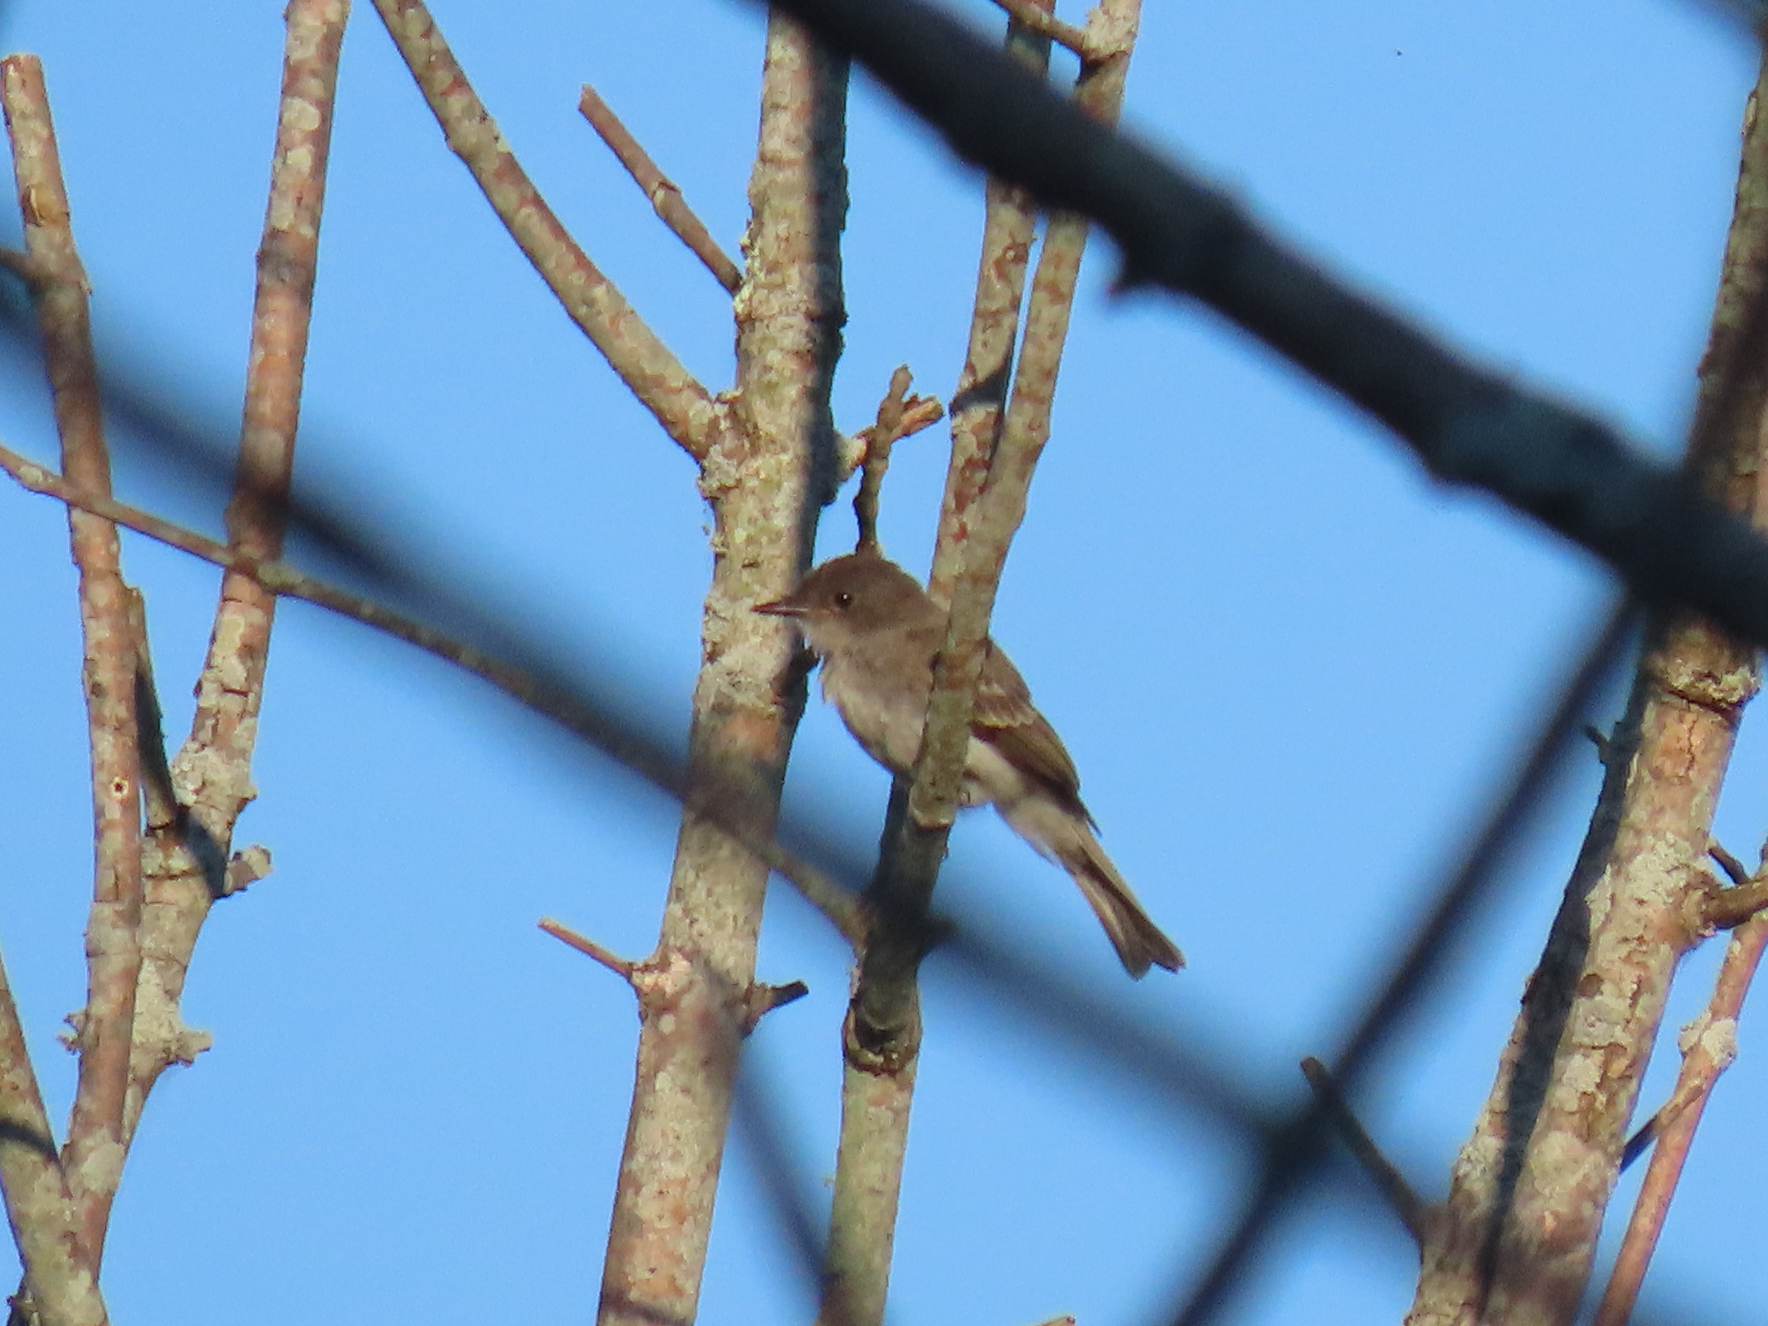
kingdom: Animalia
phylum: Chordata
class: Aves
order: Passeriformes
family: Tyrannidae
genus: Sayornis
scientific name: Sayornis phoebe
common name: Eastern phoebe
